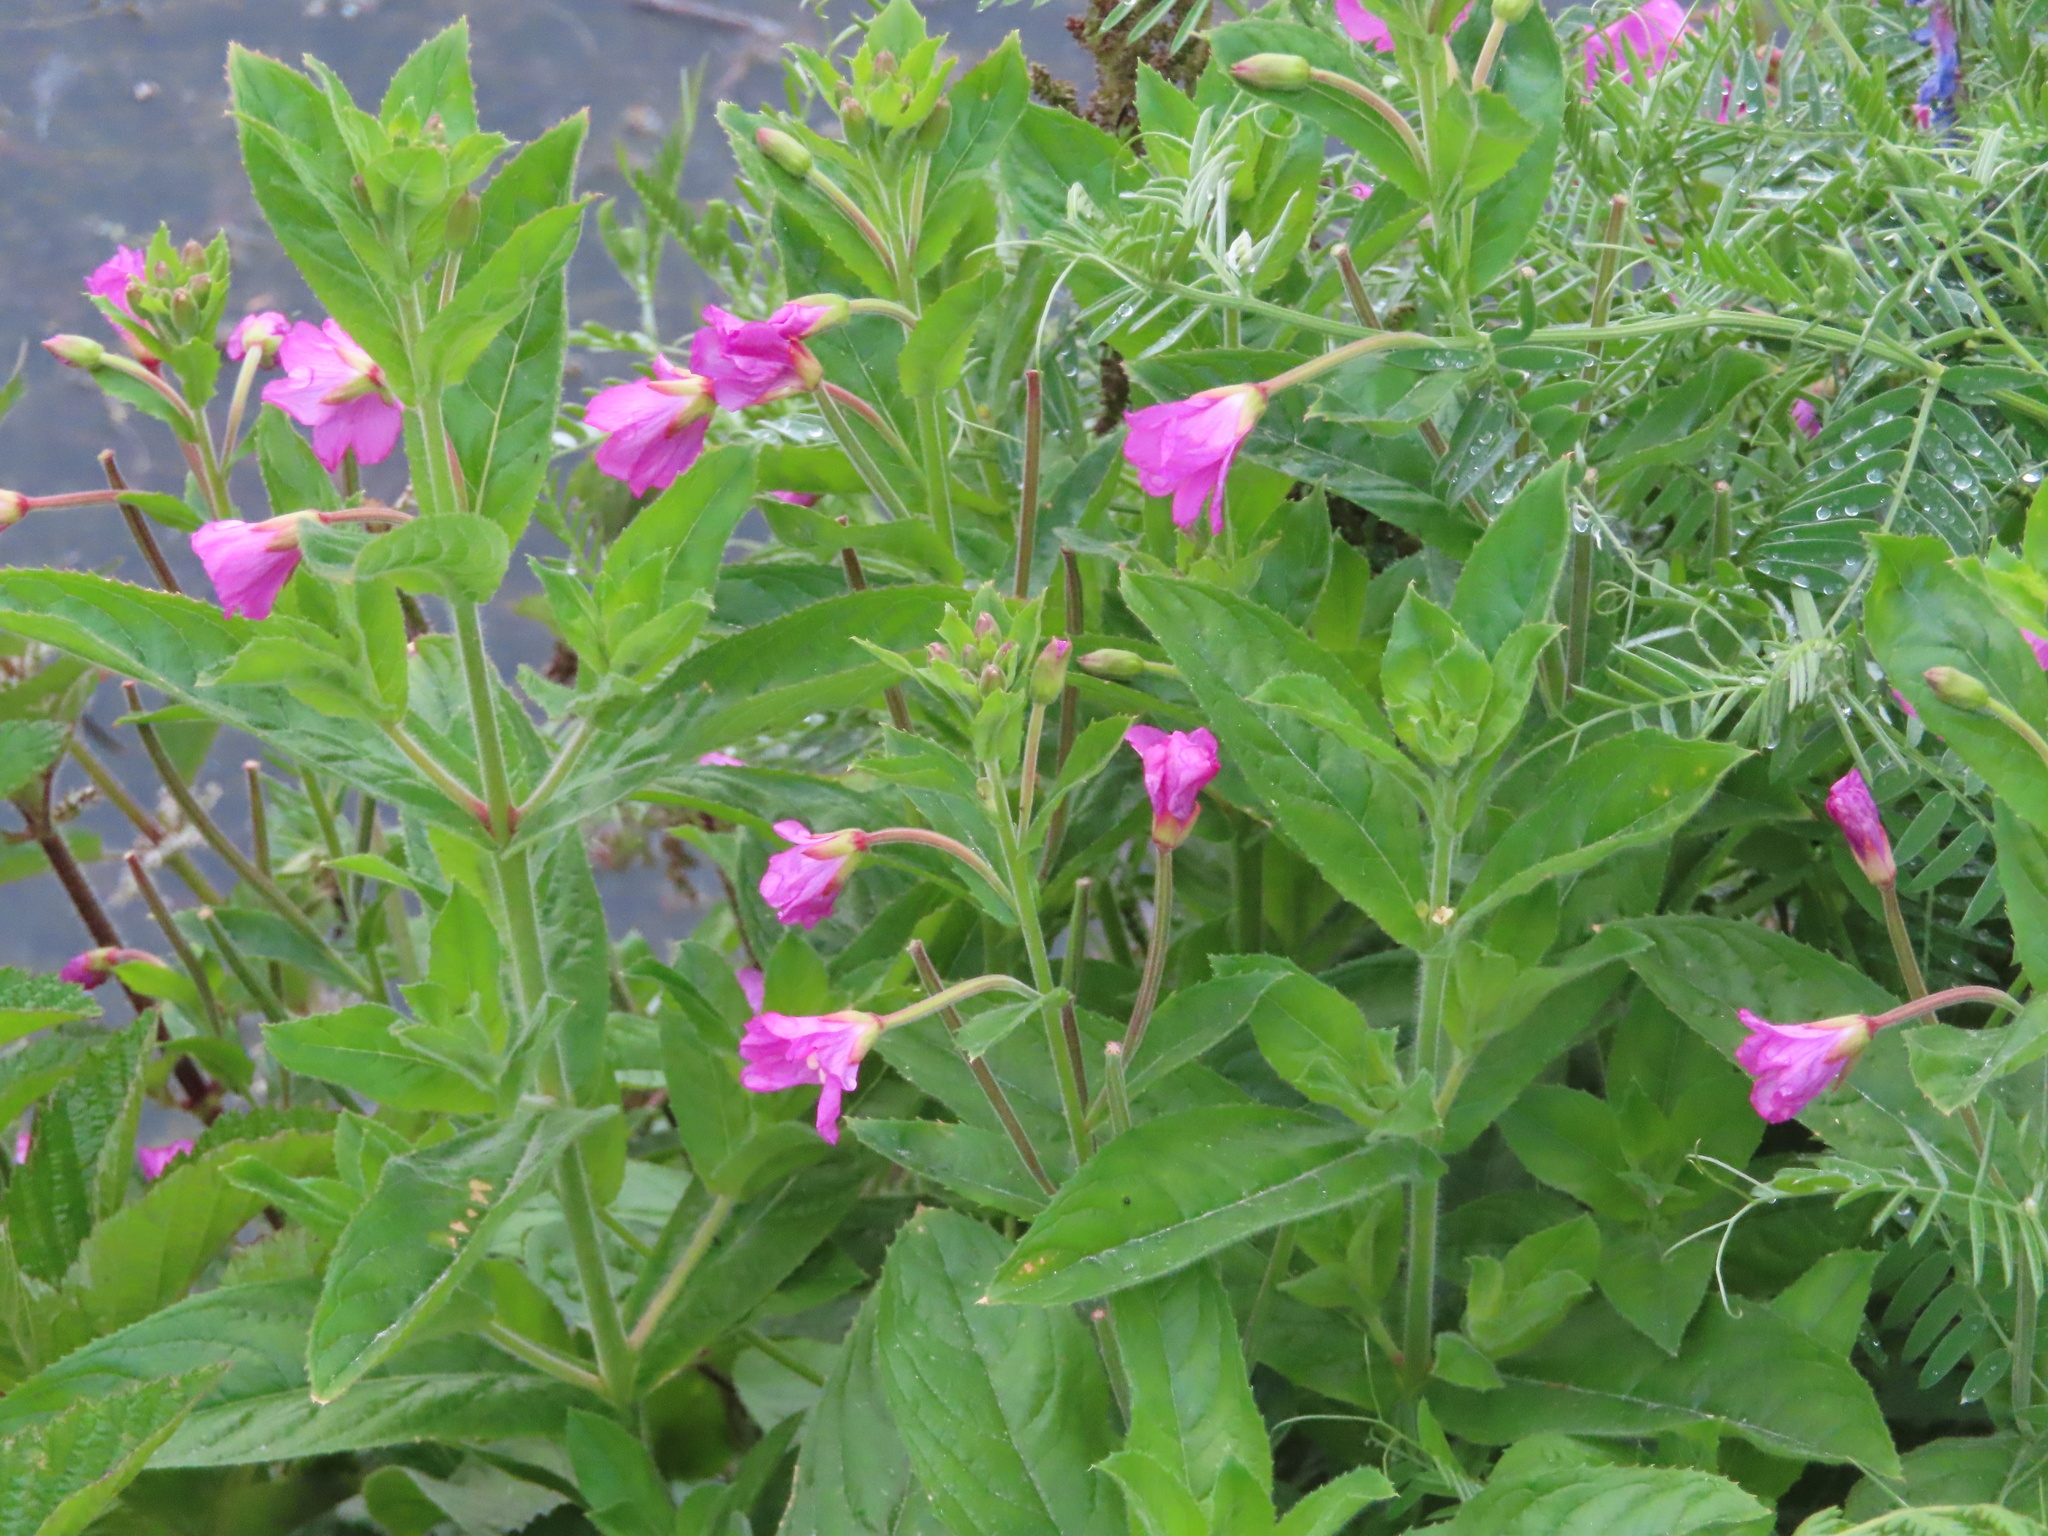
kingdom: Plantae
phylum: Tracheophyta
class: Magnoliopsida
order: Myrtales
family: Onagraceae
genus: Epilobium
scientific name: Epilobium hirsutum
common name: Great willowherb
